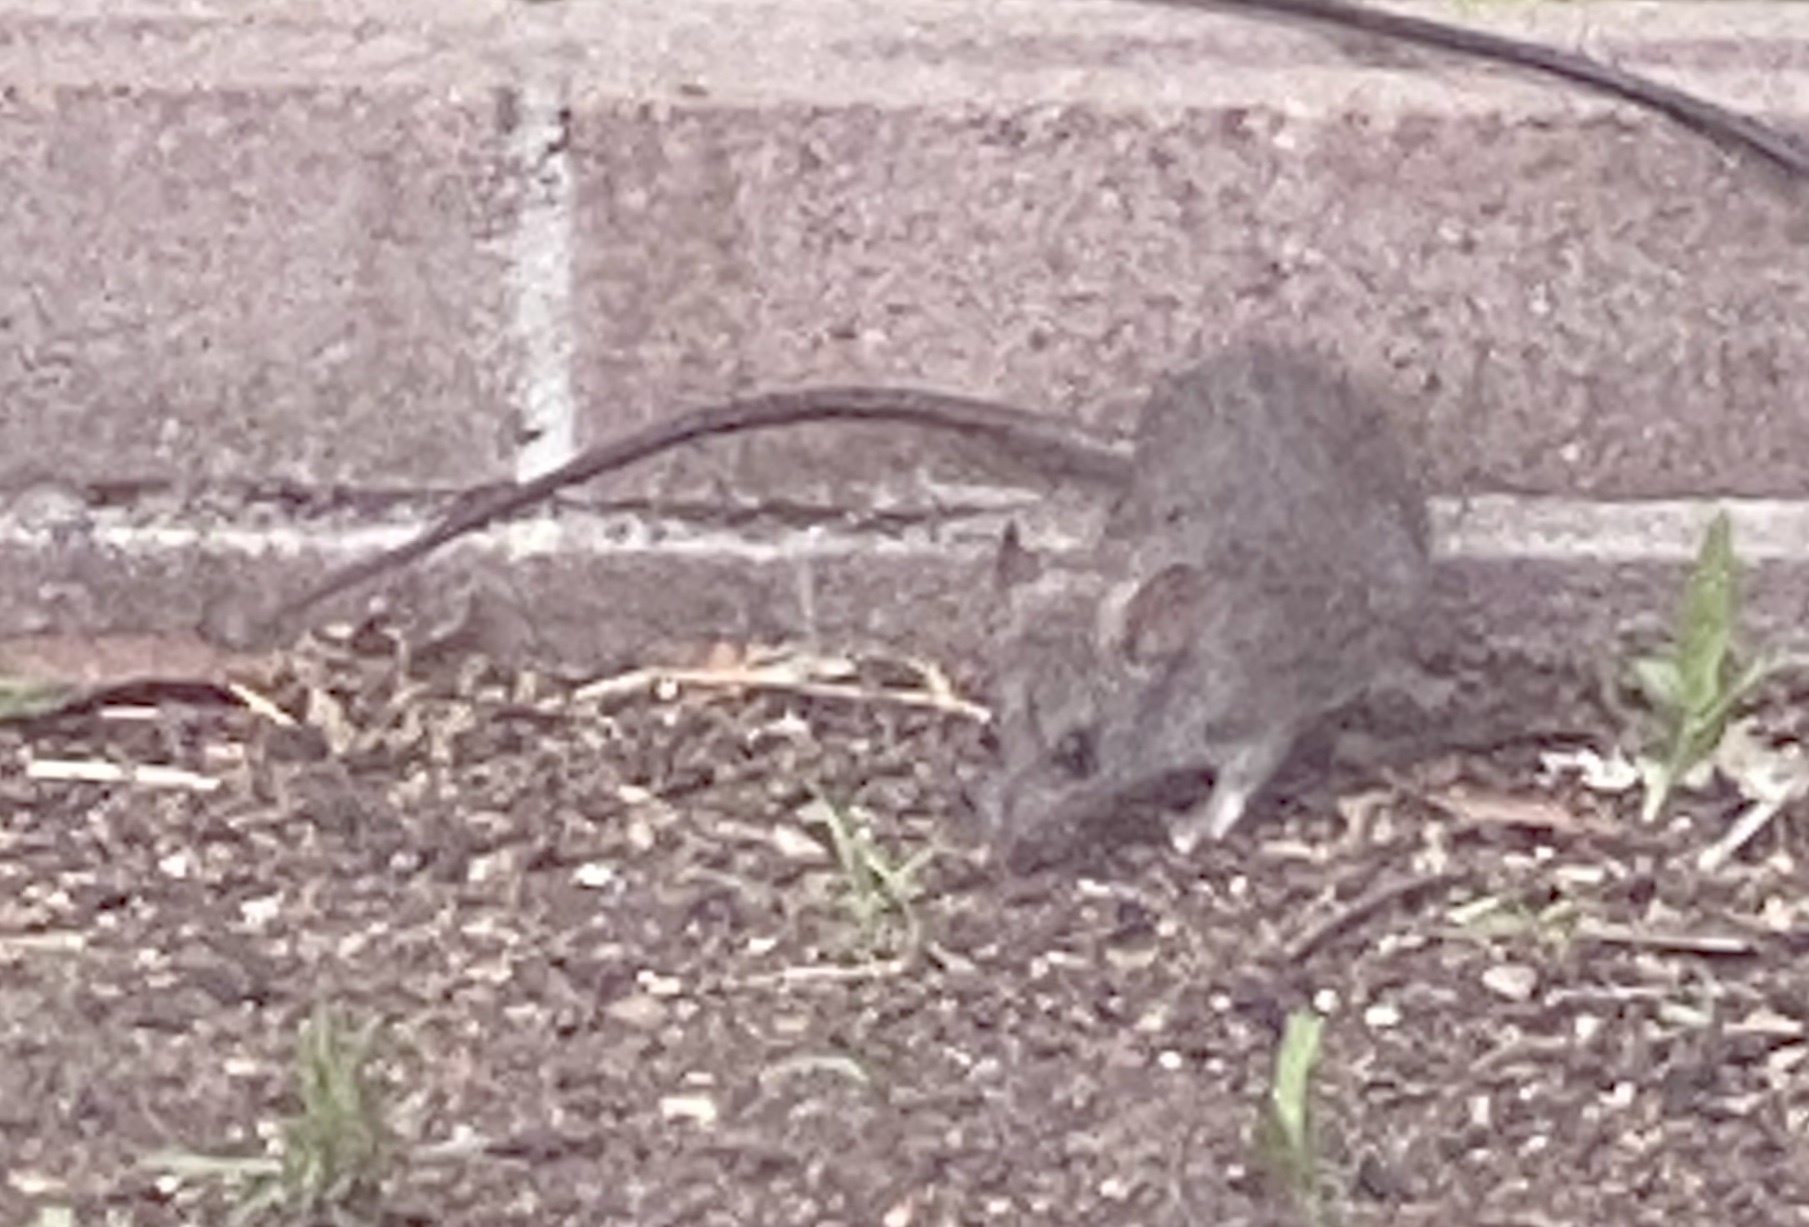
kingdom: Animalia
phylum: Chordata
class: Mammalia
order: Rodentia
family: Muridae
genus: Rattus
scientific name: Rattus rattus
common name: Black rat
